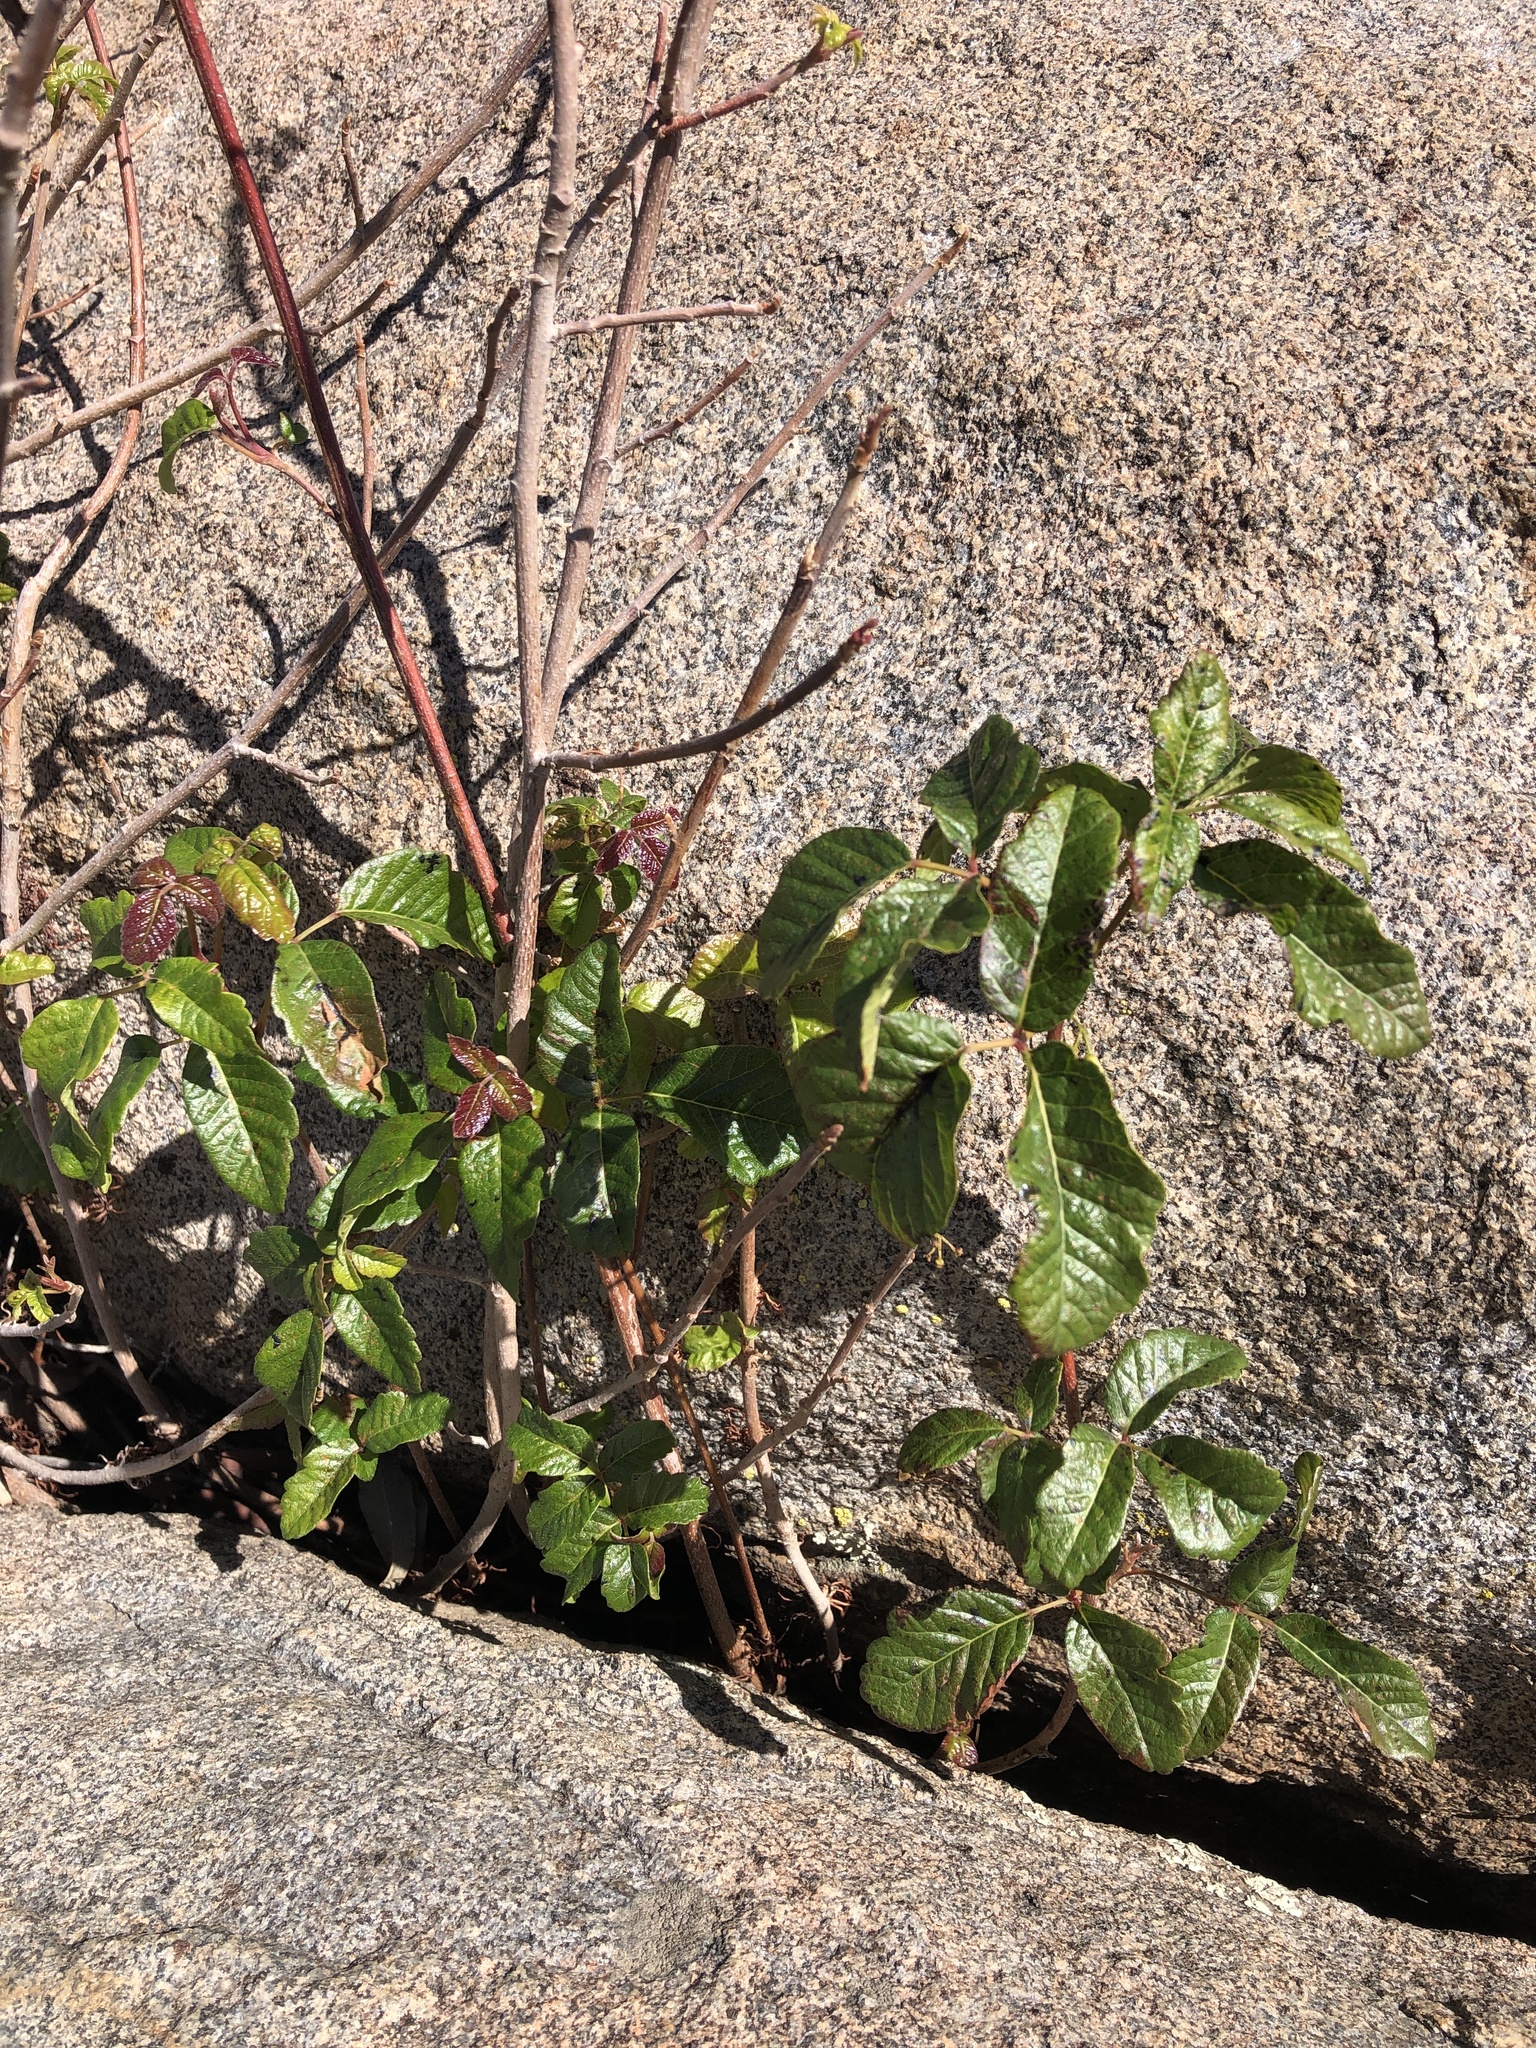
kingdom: Plantae
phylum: Tracheophyta
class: Magnoliopsida
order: Sapindales
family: Anacardiaceae
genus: Toxicodendron
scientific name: Toxicodendron diversilobum
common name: Pacific poison-oak
